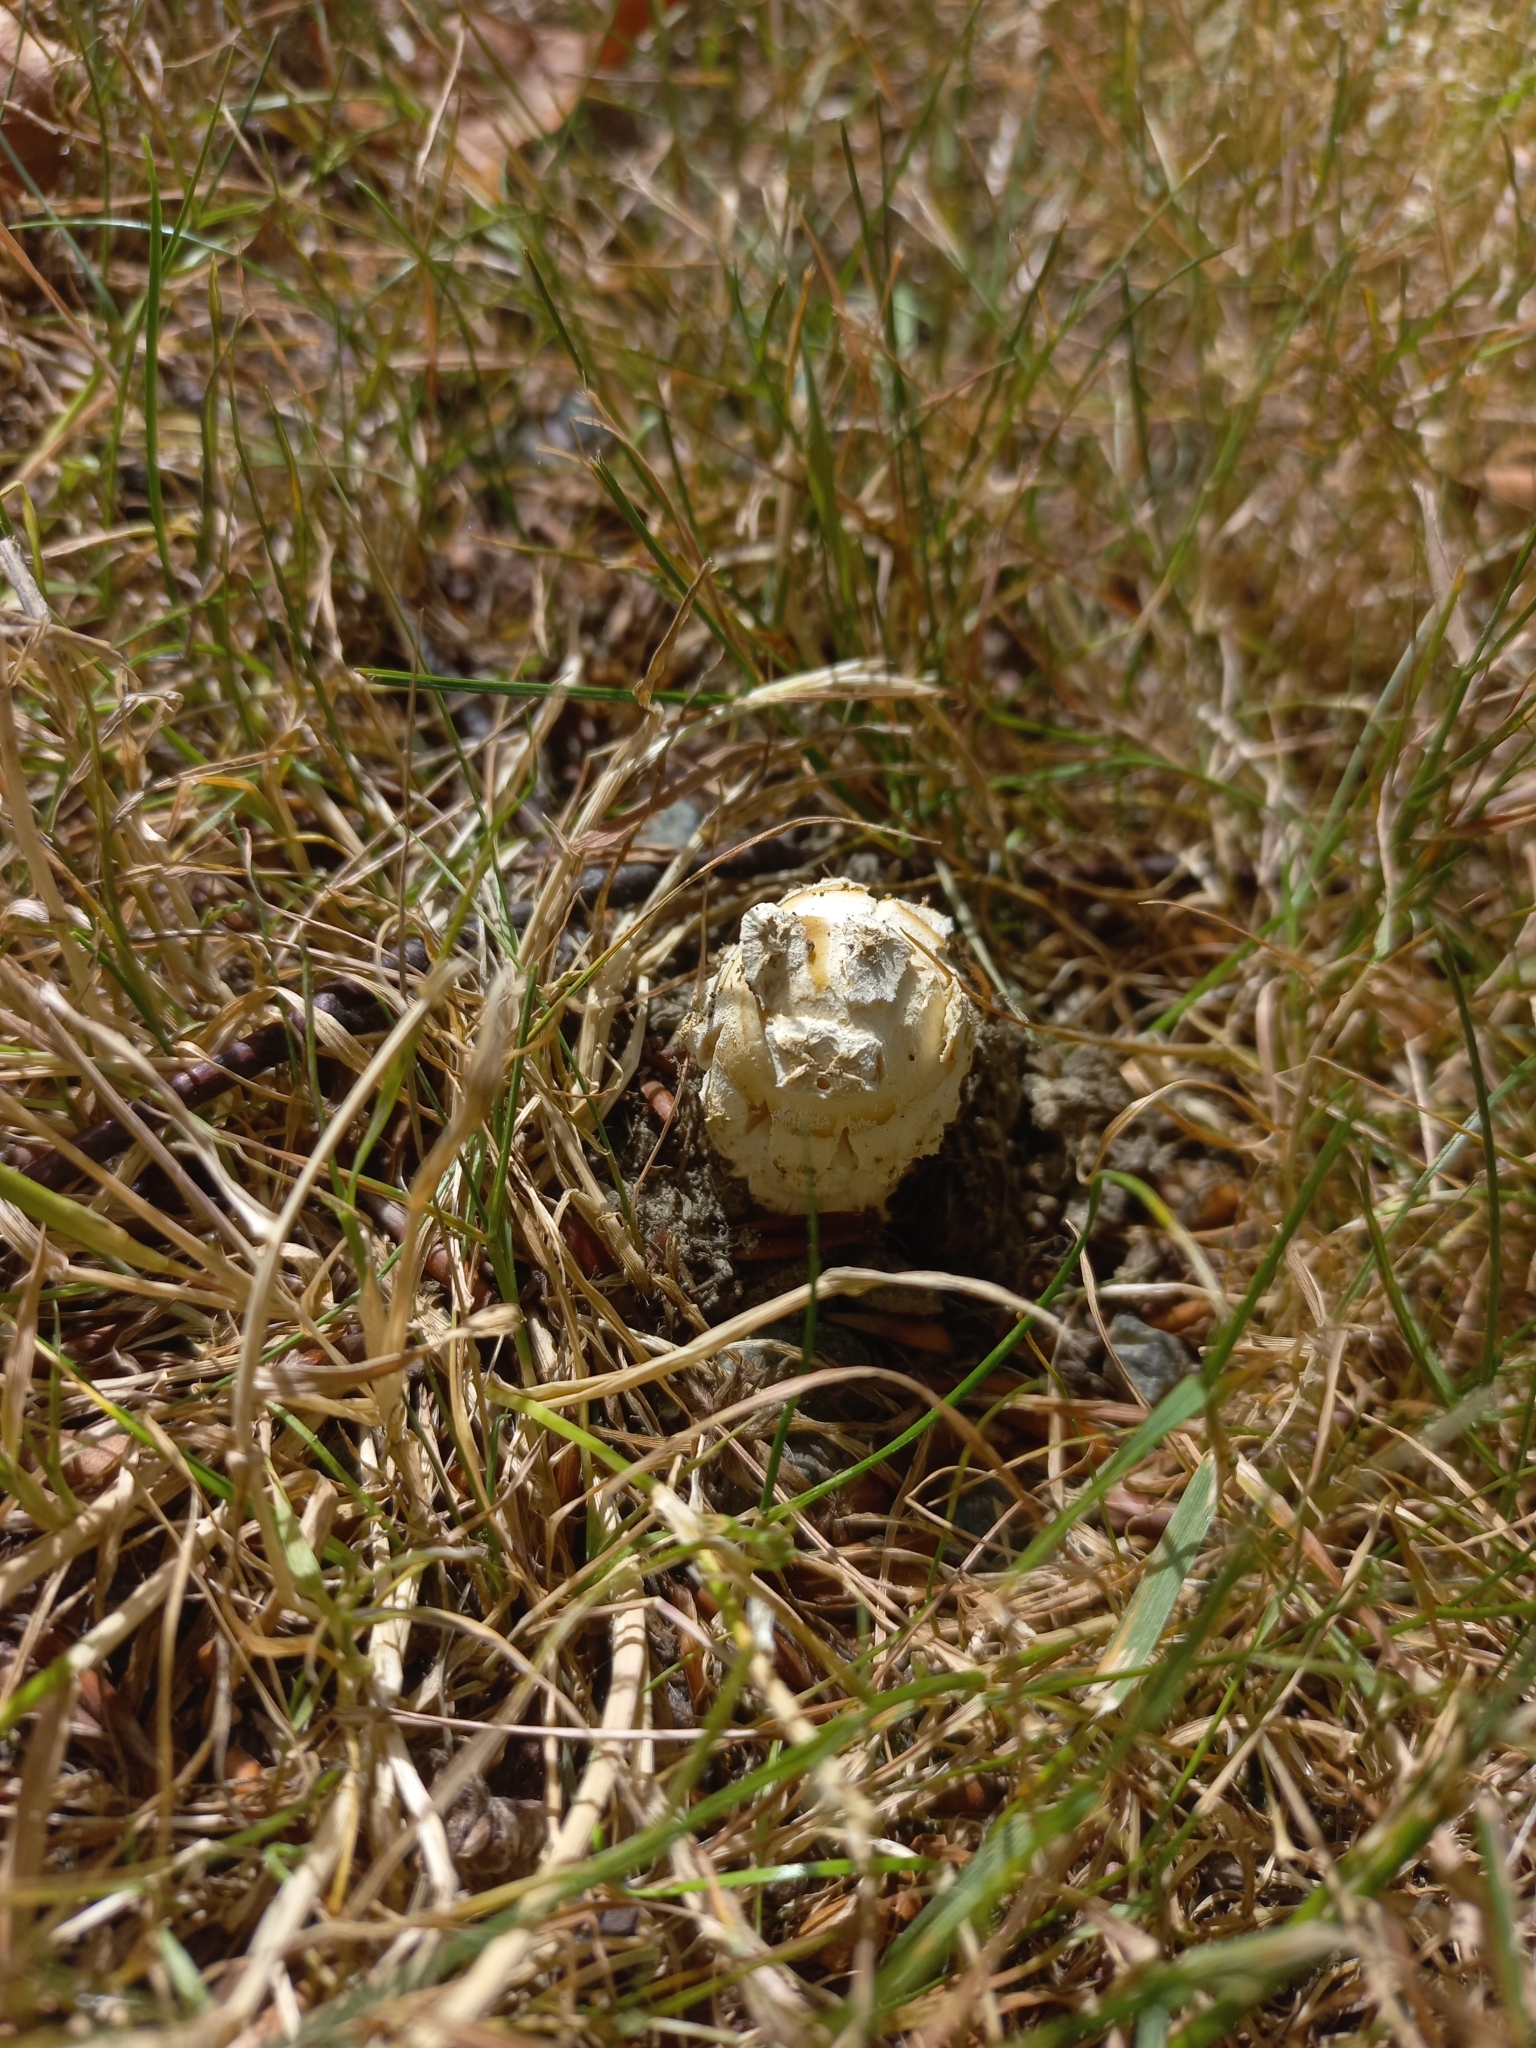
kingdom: Fungi
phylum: Basidiomycota
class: Agaricomycetes
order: Agaricales
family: Amanitaceae
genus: Amanita
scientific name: Amanita muscaria
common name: Fly agaric
